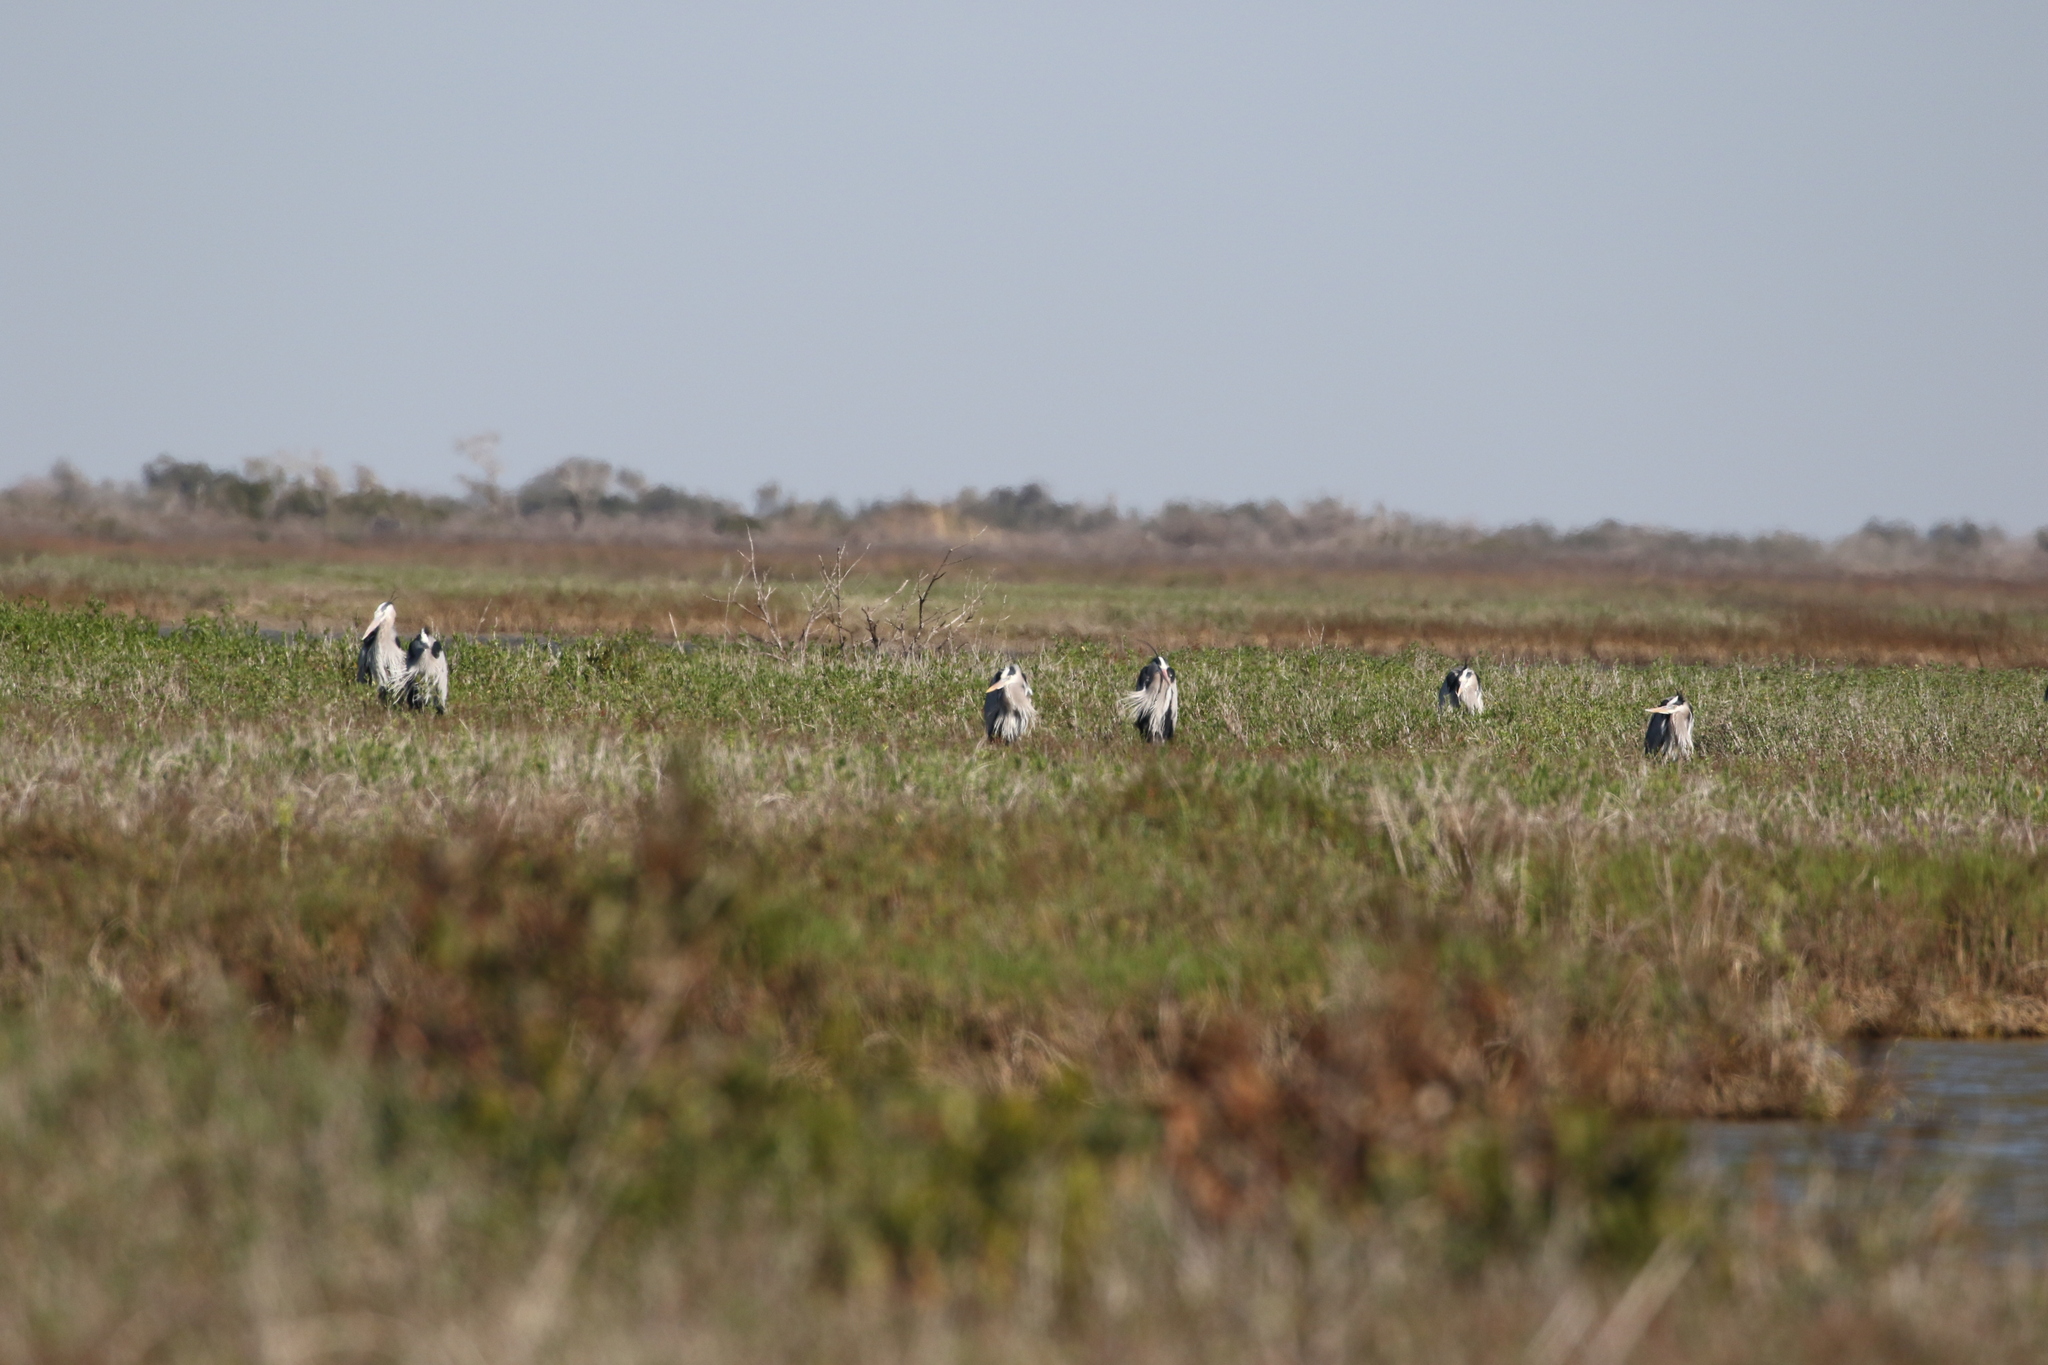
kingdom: Animalia
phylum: Chordata
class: Aves
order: Pelecaniformes
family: Ardeidae
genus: Ardea
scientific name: Ardea herodias
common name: Great blue heron
